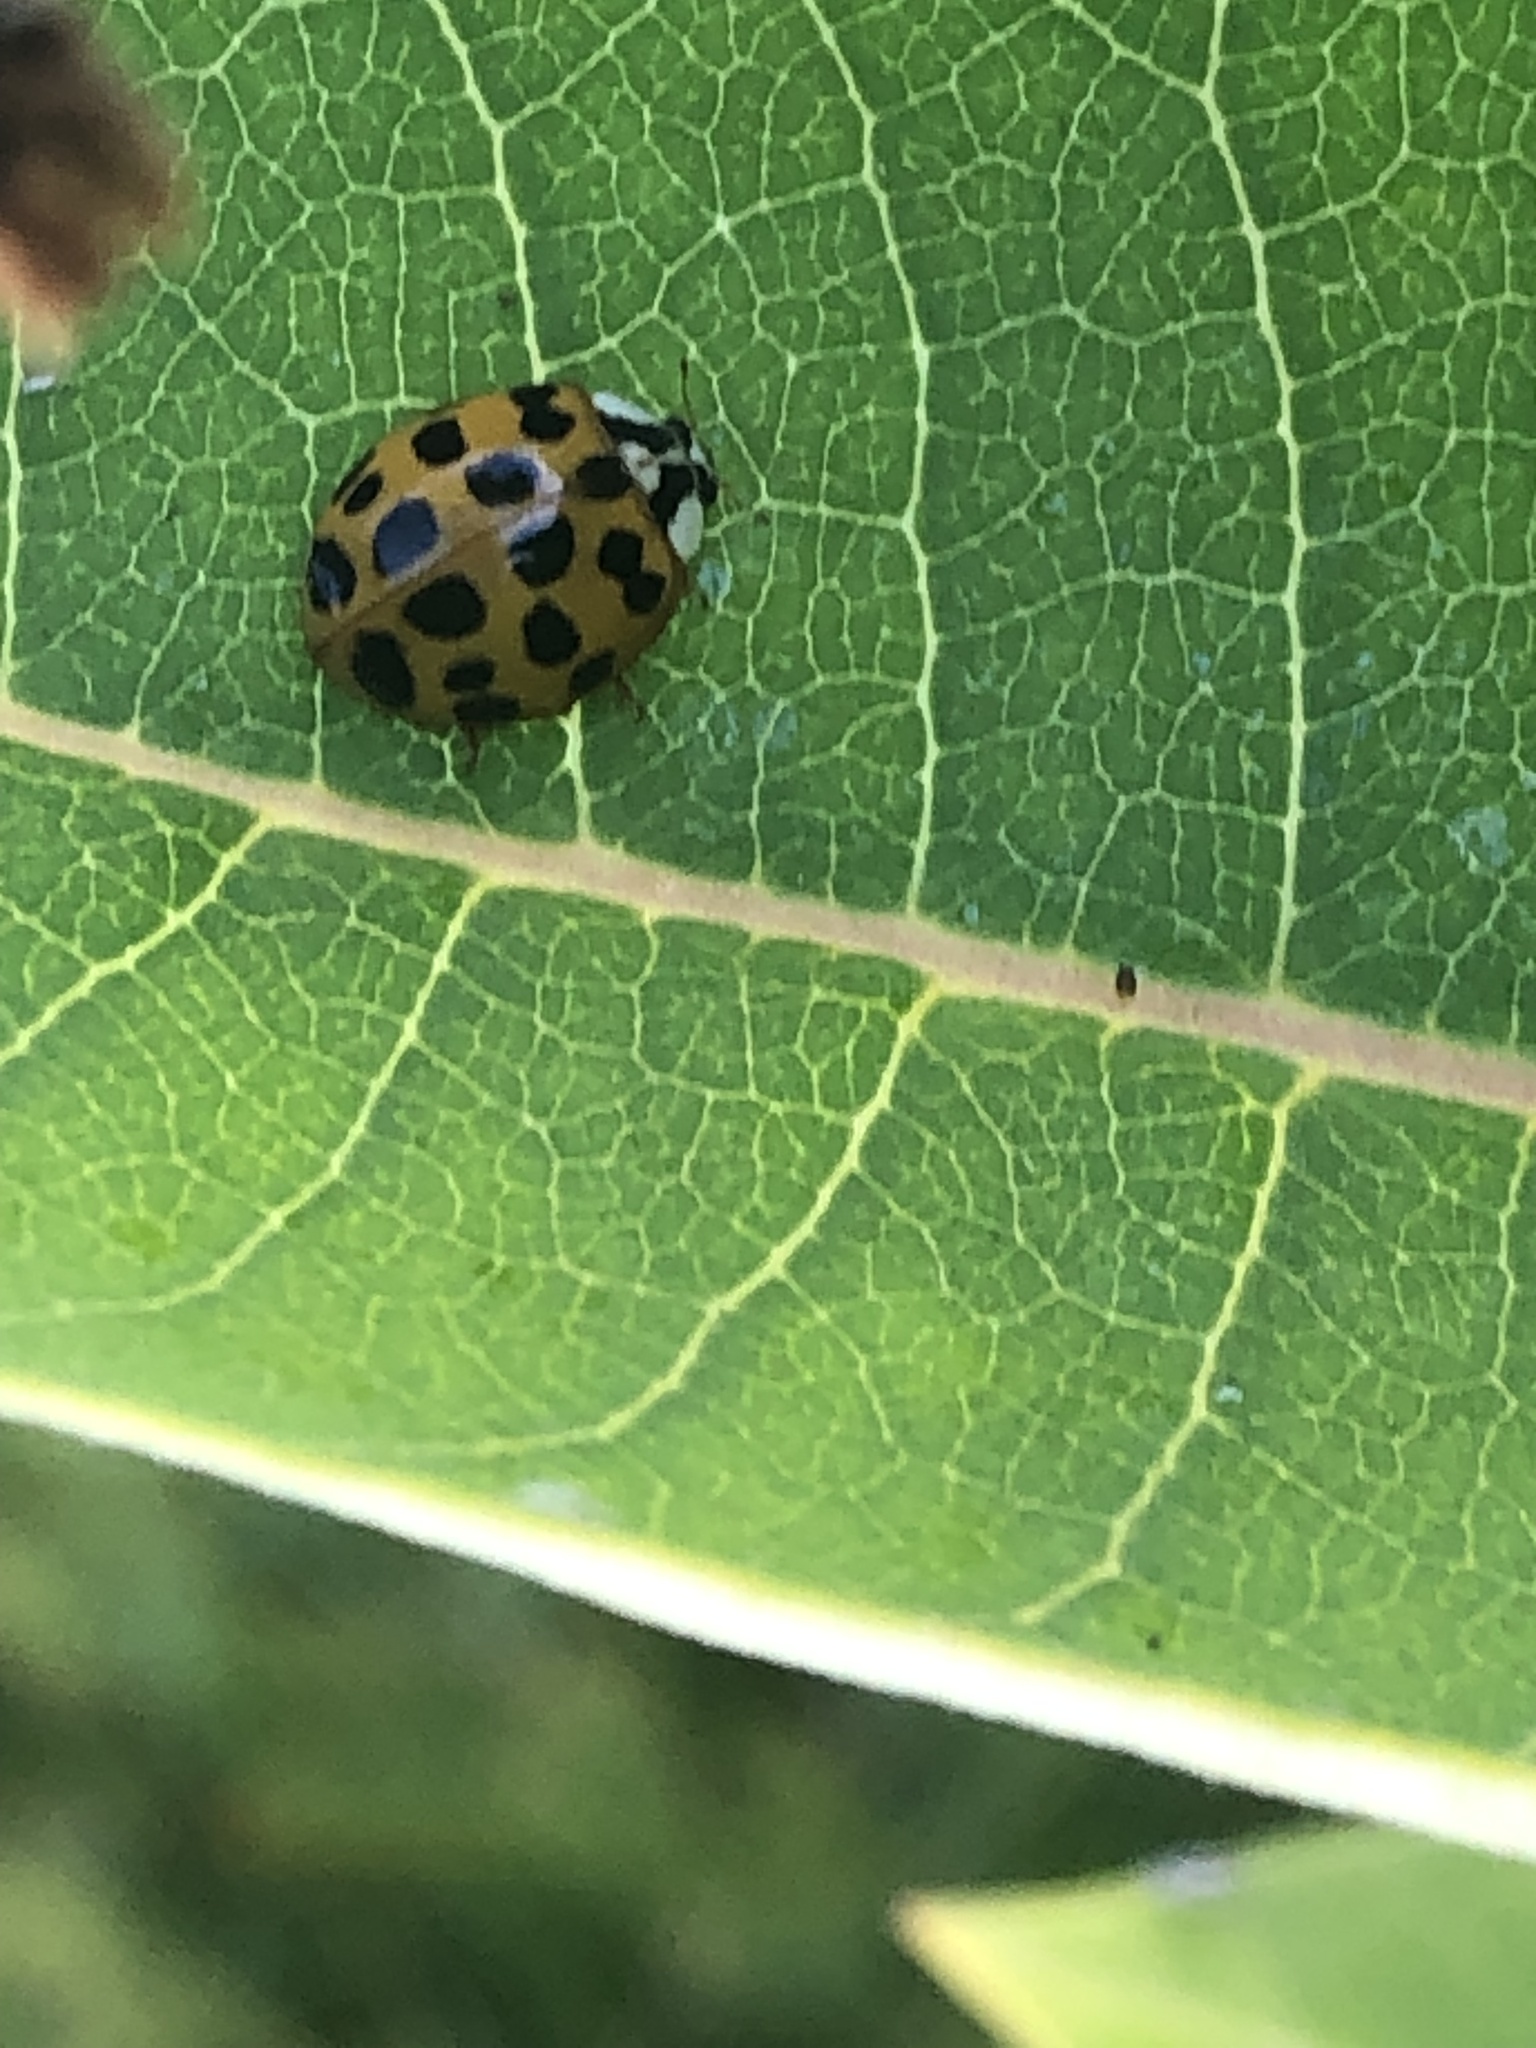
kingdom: Animalia
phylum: Arthropoda
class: Insecta
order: Coleoptera
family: Coccinellidae
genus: Harmonia
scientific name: Harmonia axyridis
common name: Harlequin ladybird
